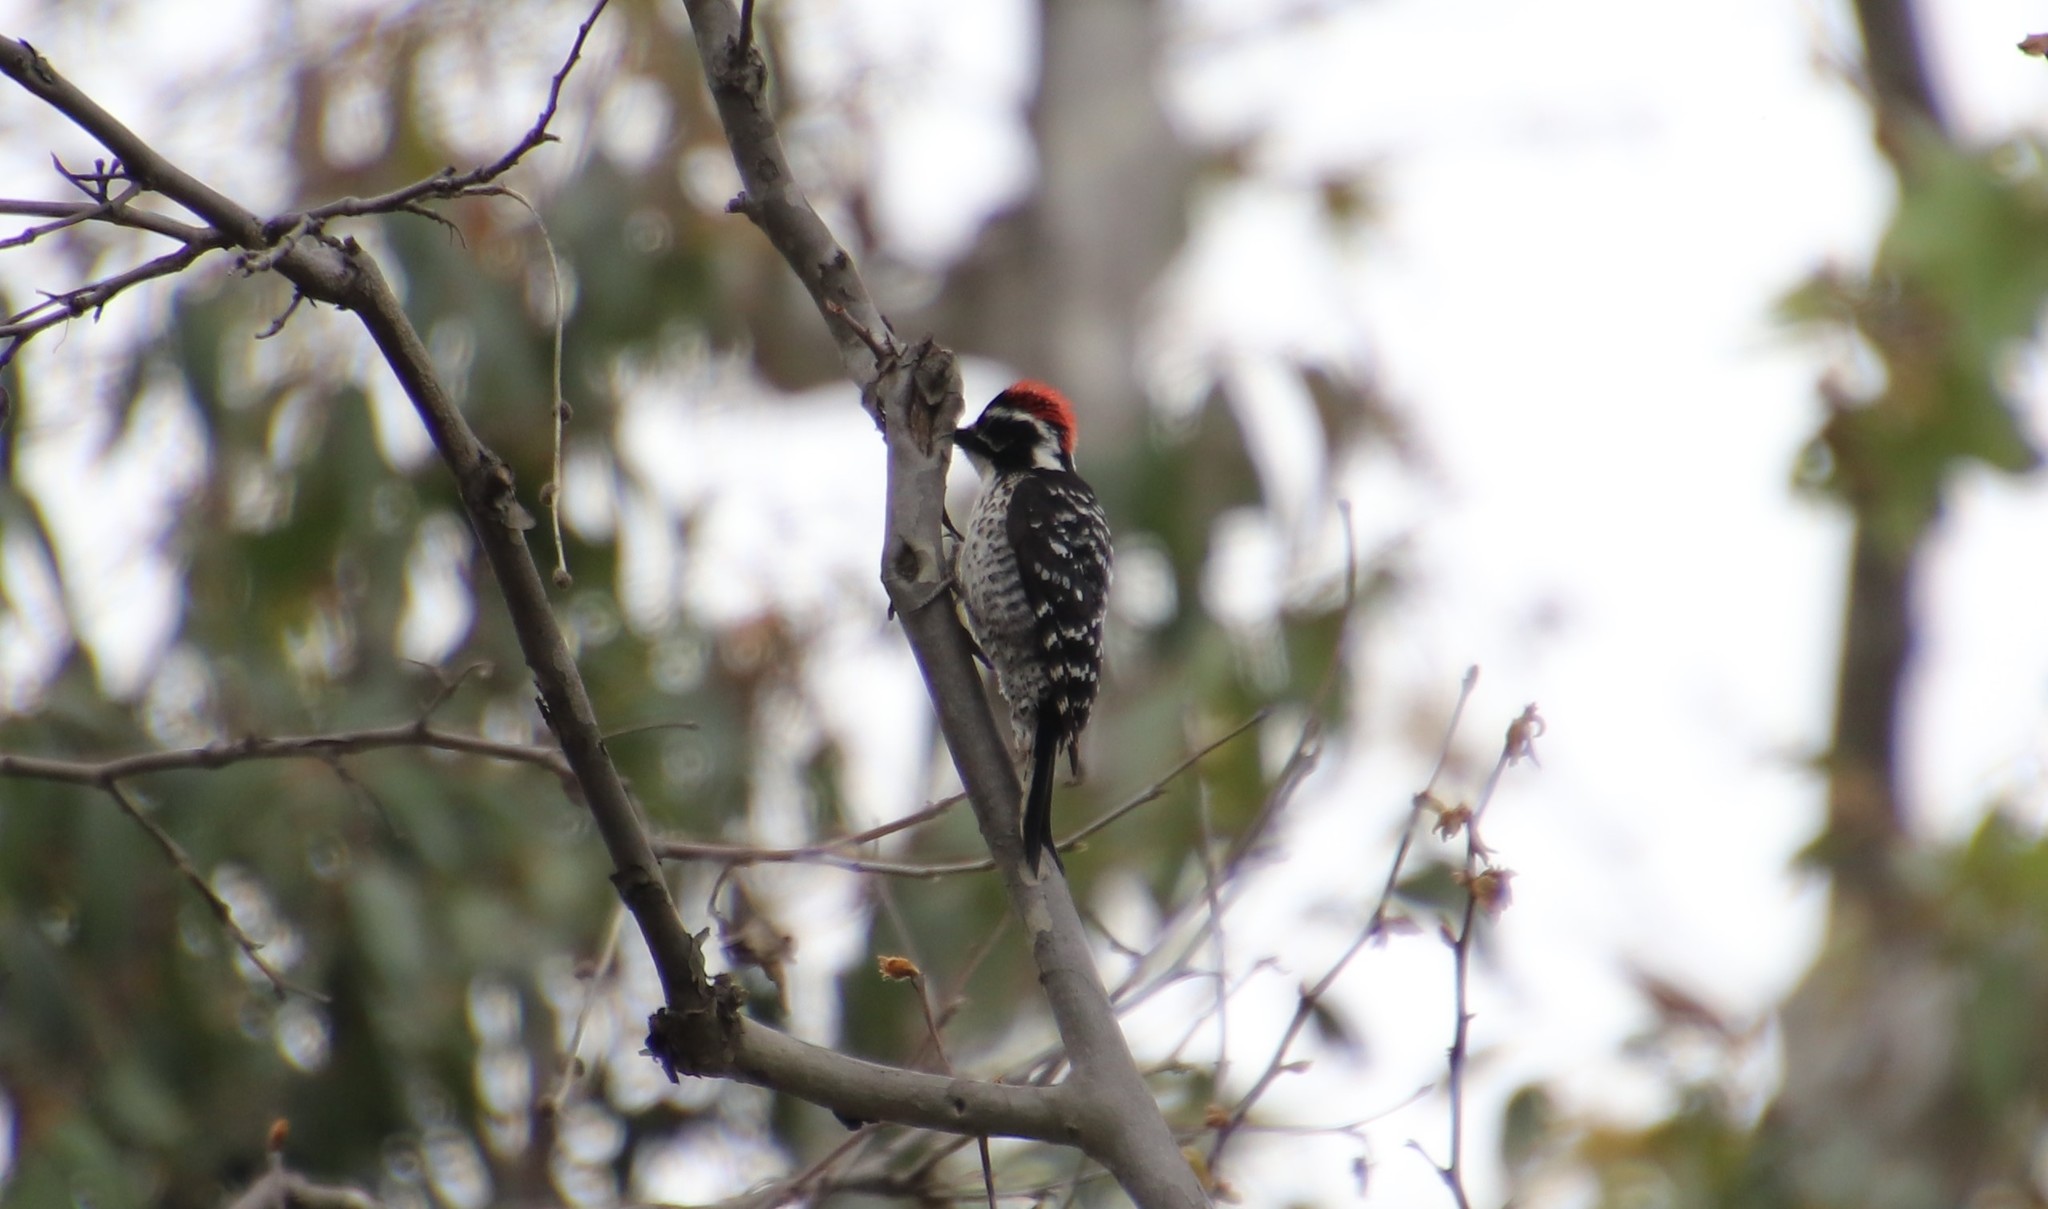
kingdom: Animalia
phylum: Chordata
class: Aves
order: Piciformes
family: Picidae
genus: Dryobates
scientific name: Dryobates nuttallii
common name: Nuttall's woodpecker
